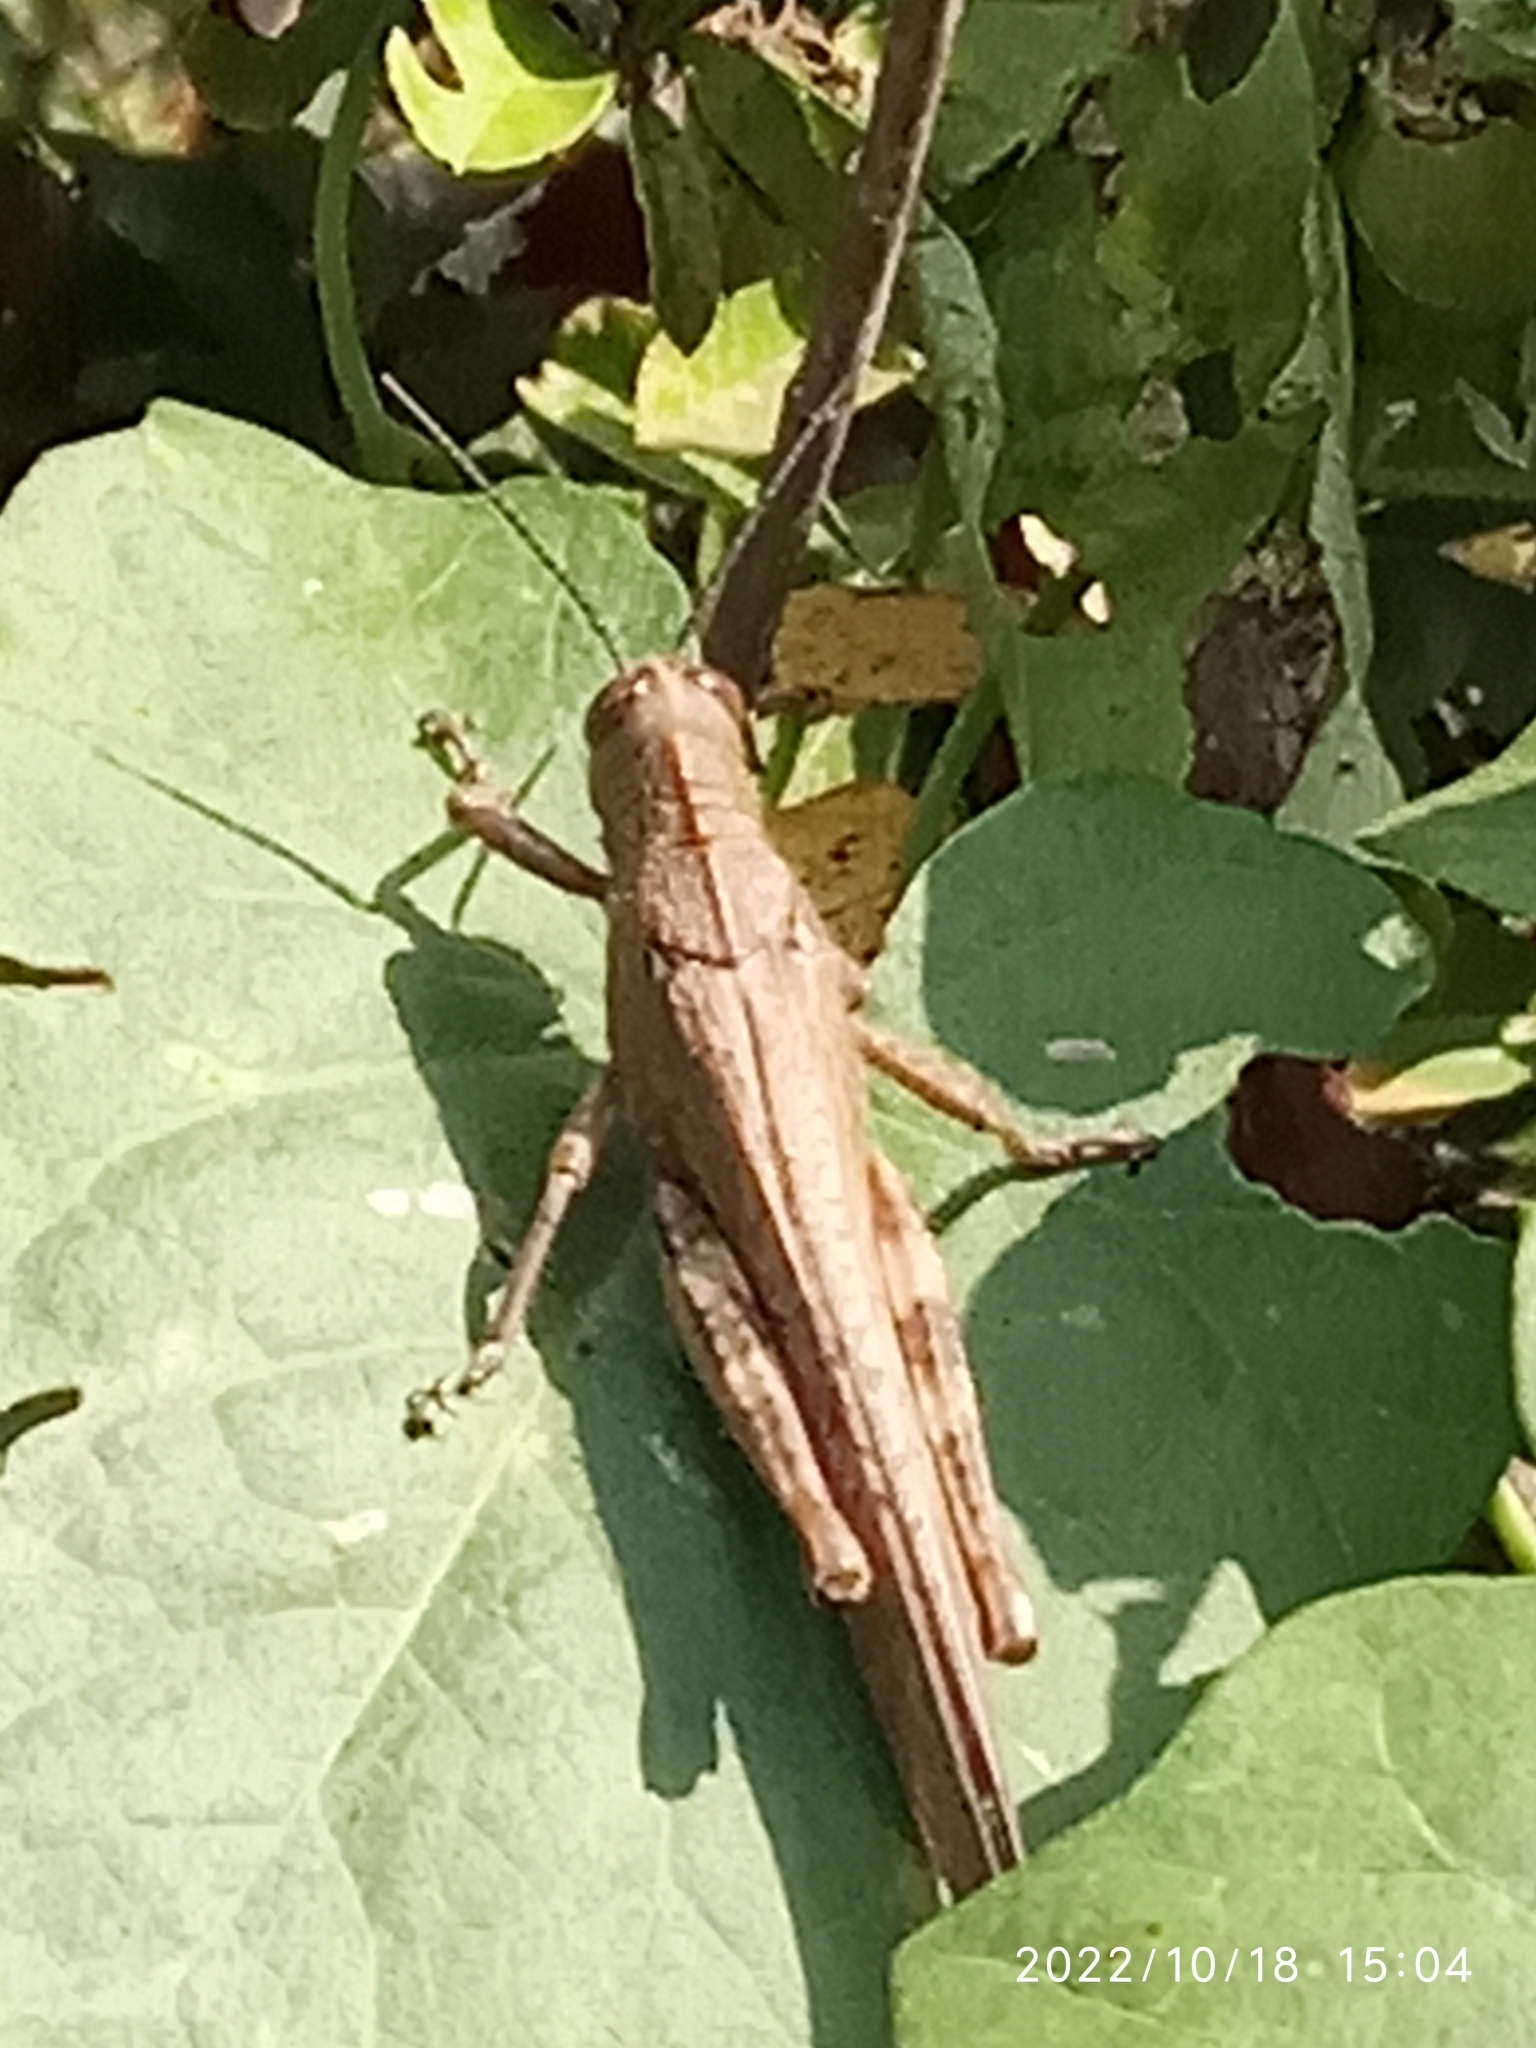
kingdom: Animalia
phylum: Arthropoda
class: Insecta
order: Orthoptera
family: Acrididae
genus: Anacridium
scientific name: Anacridium aegyptium
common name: Egyptian grasshopper
